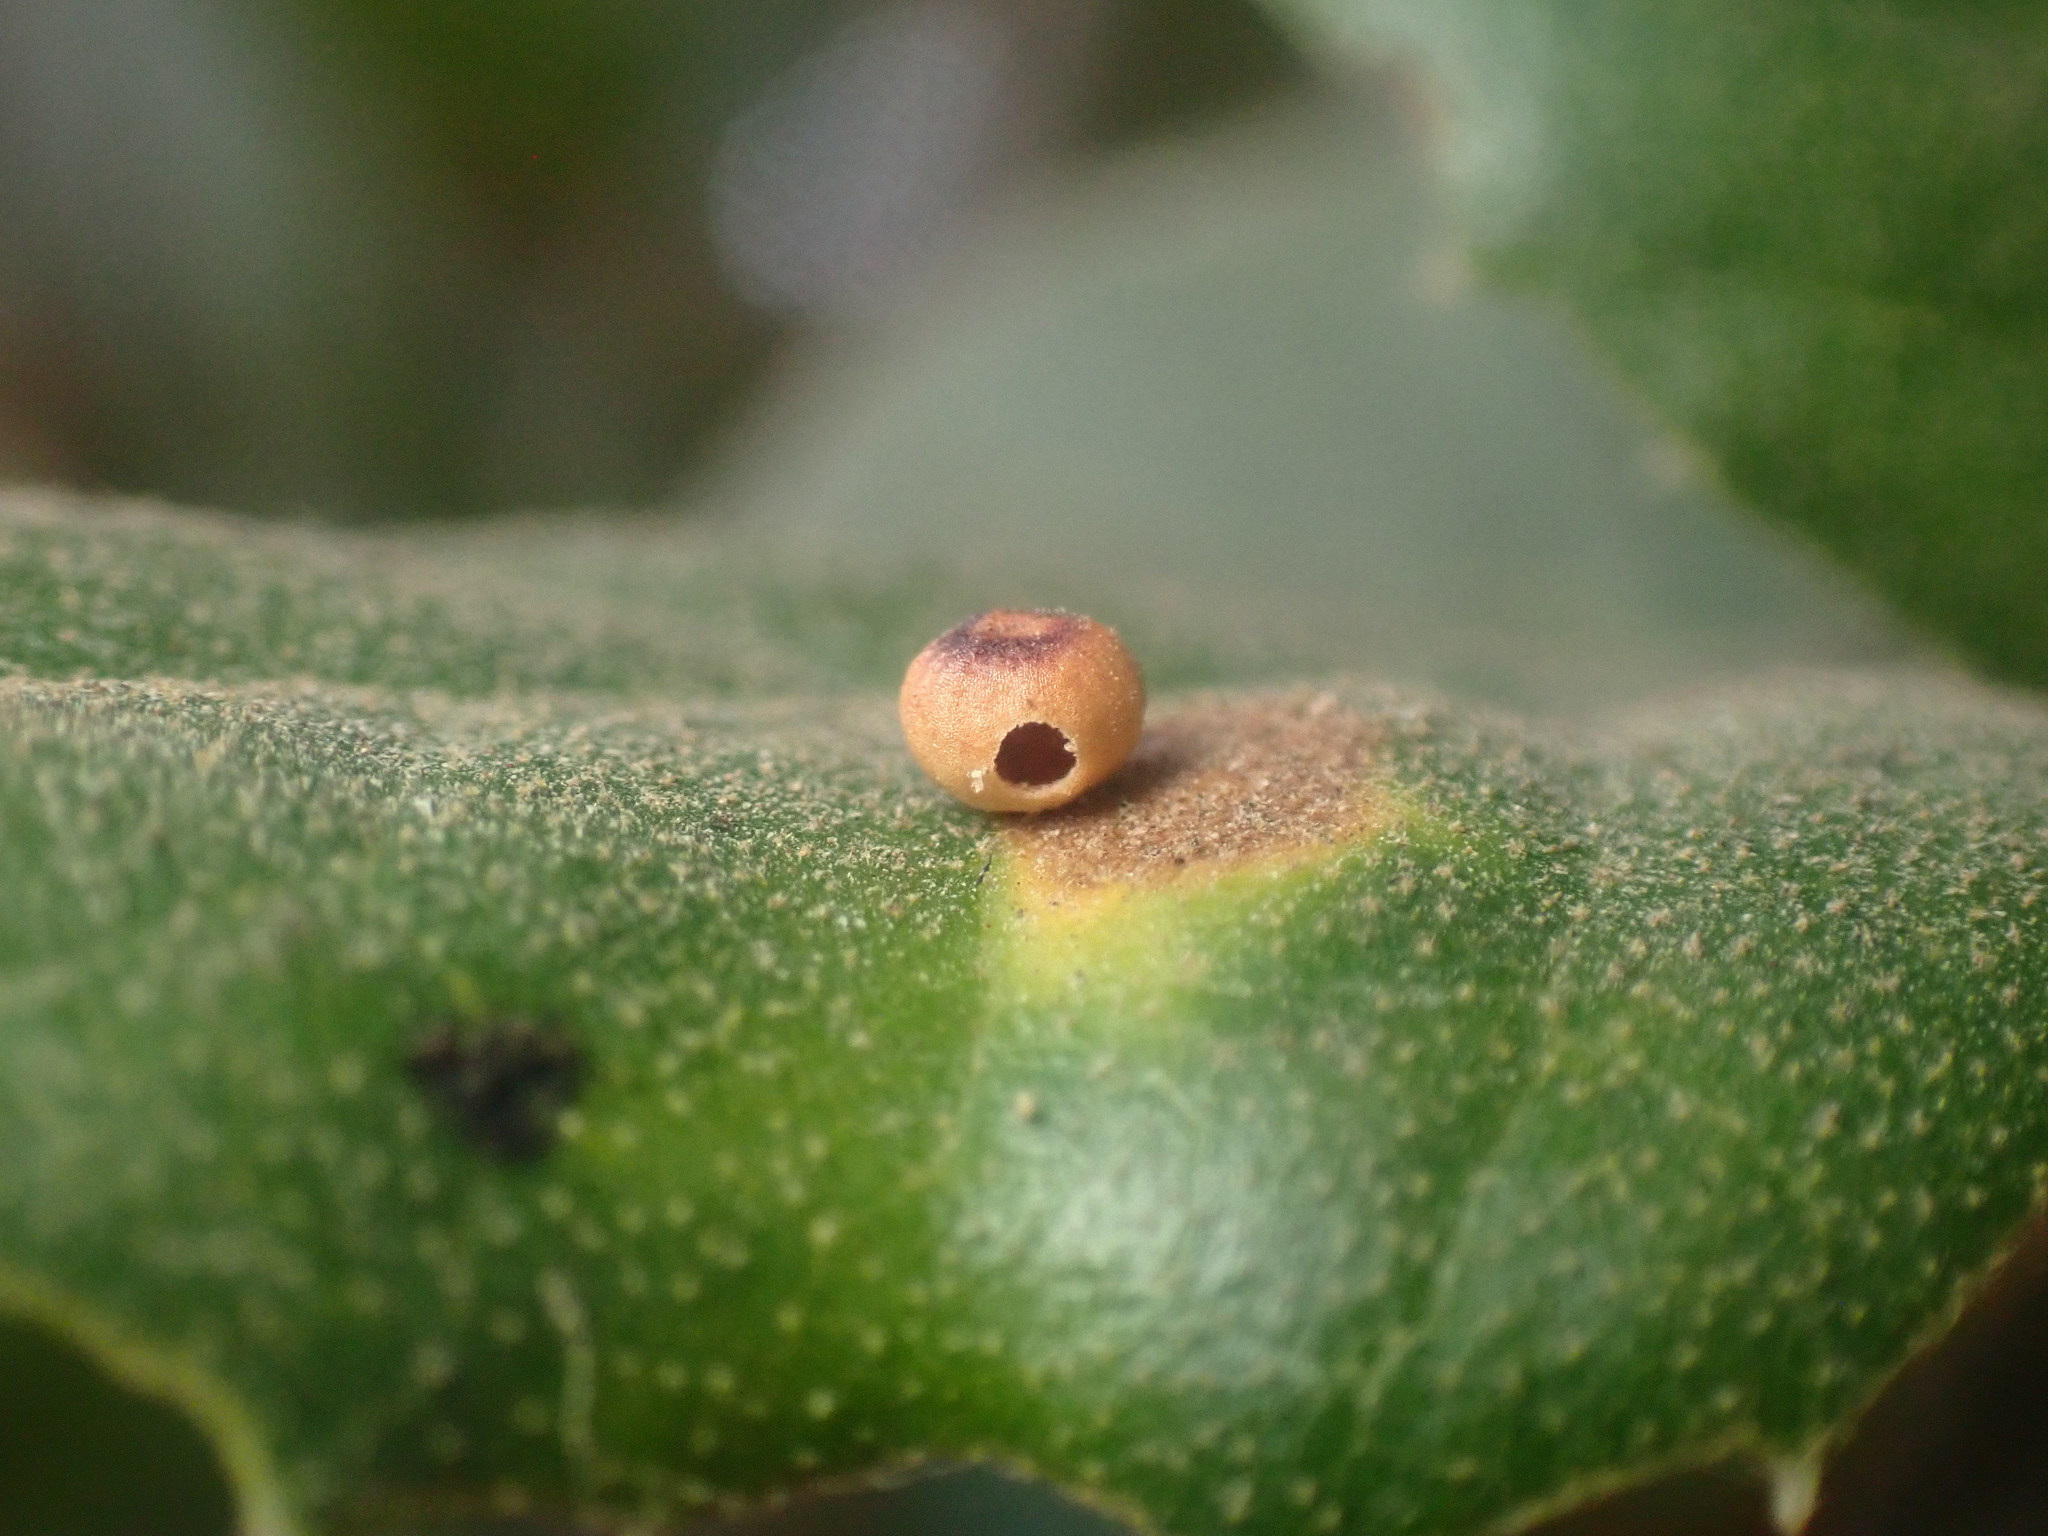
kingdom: Animalia
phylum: Arthropoda
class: Insecta
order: Hymenoptera
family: Cynipidae
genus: Dryocosmus
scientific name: Dryocosmus
